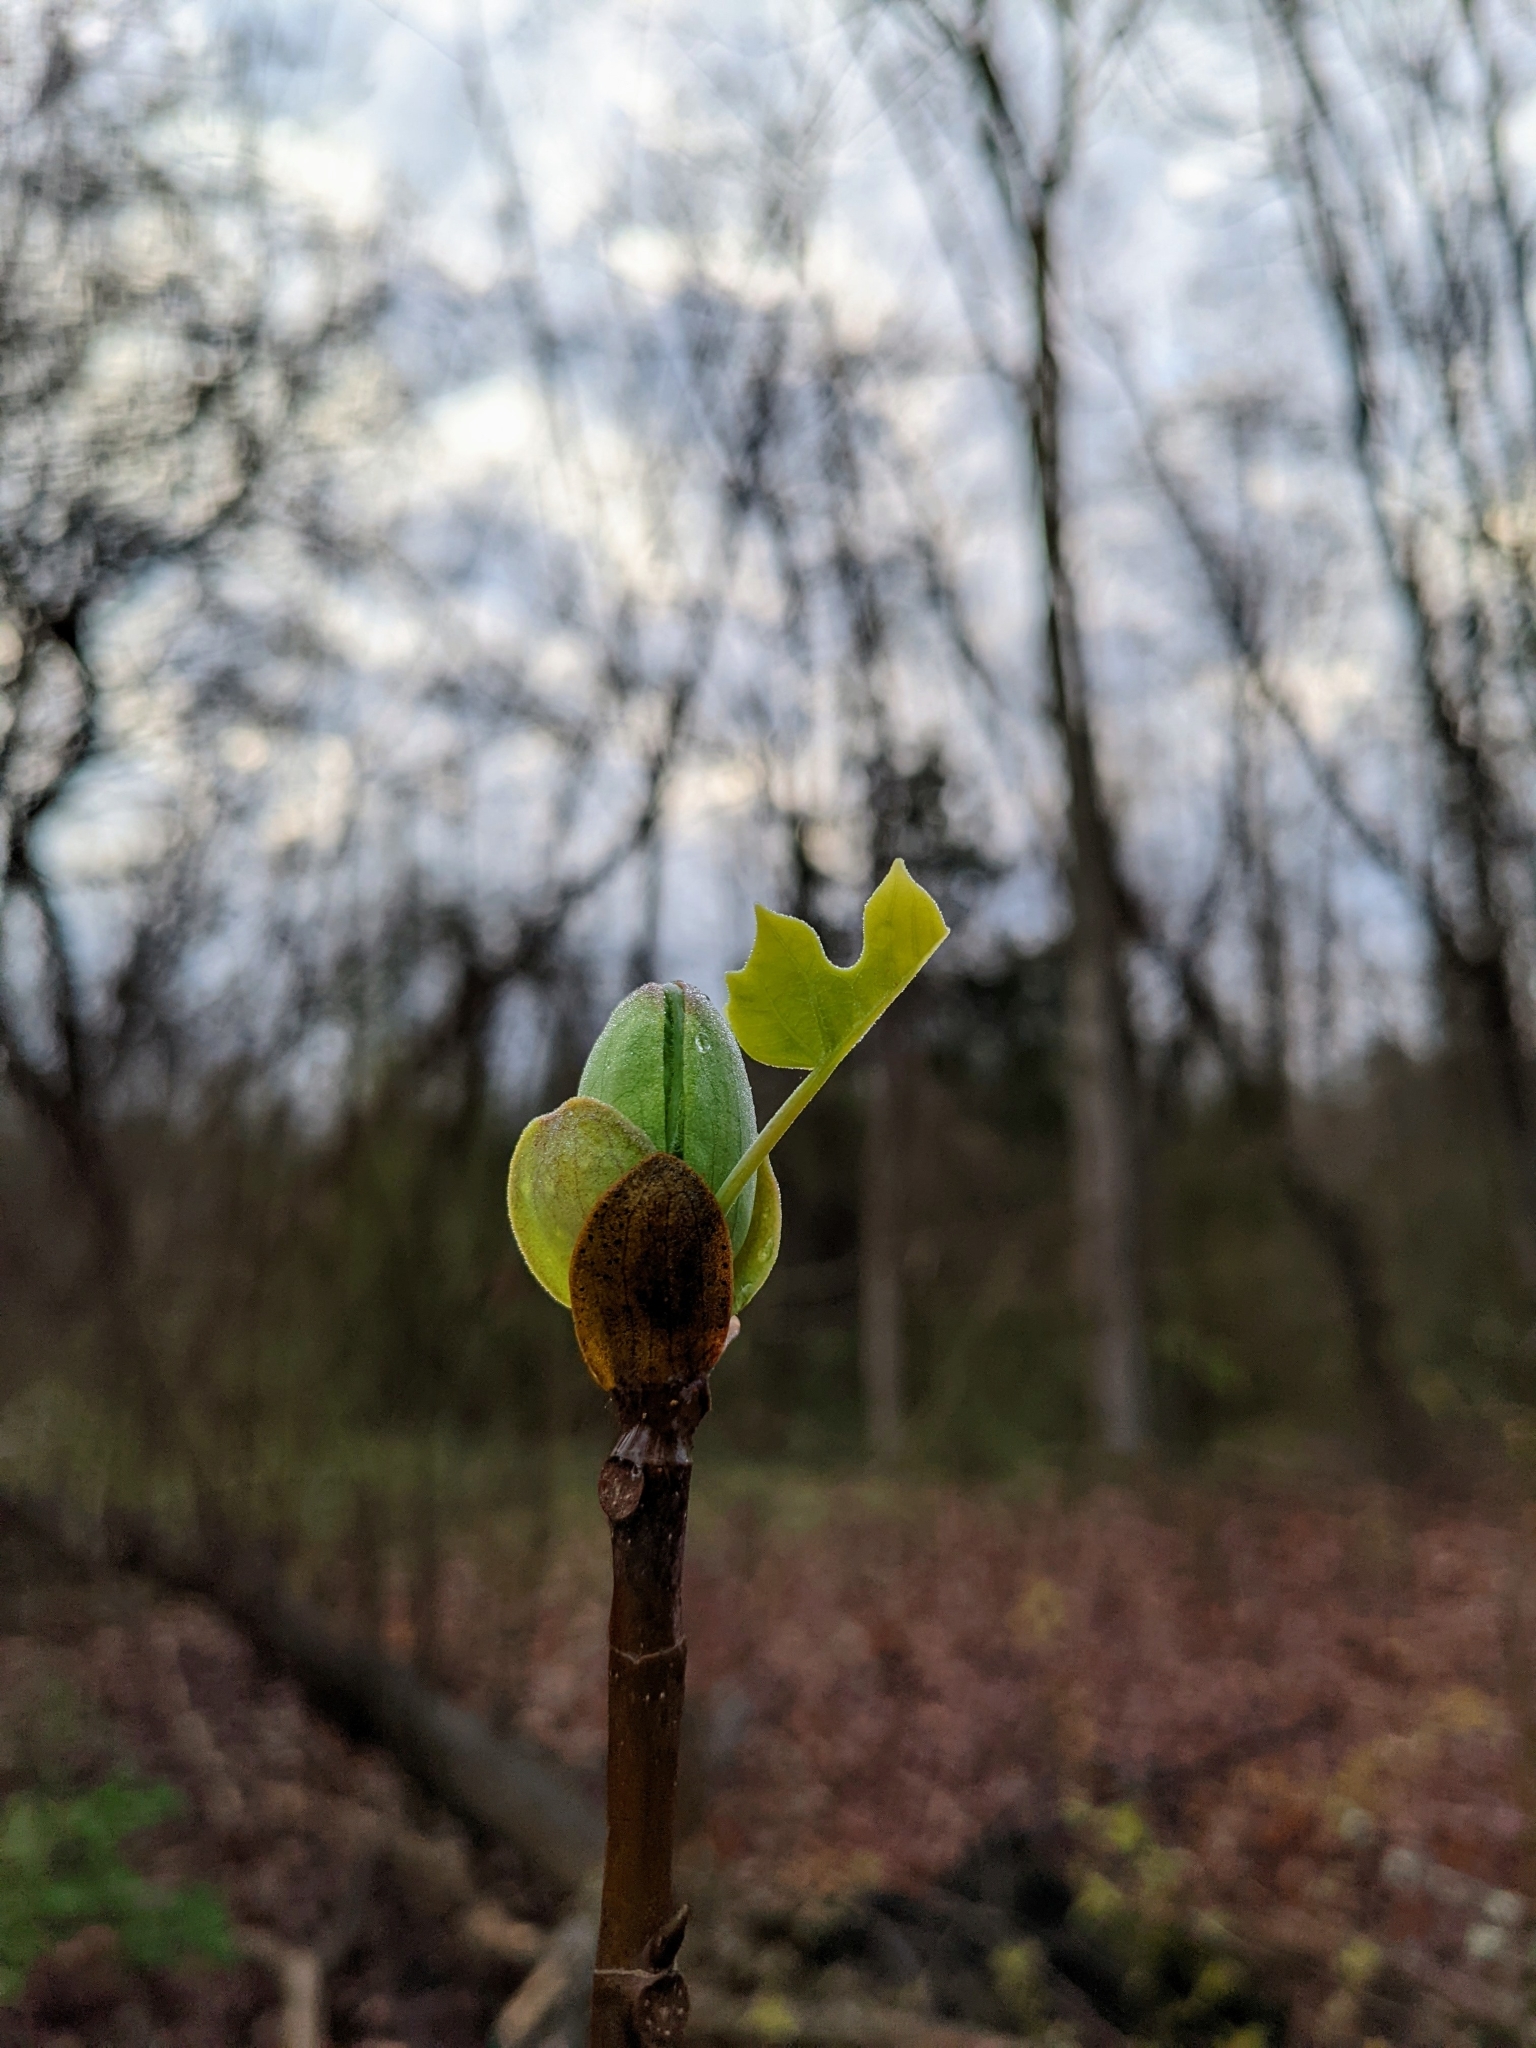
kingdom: Plantae
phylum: Tracheophyta
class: Magnoliopsida
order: Magnoliales
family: Magnoliaceae
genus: Liriodendron
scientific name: Liriodendron tulipifera
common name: Tulip tree
